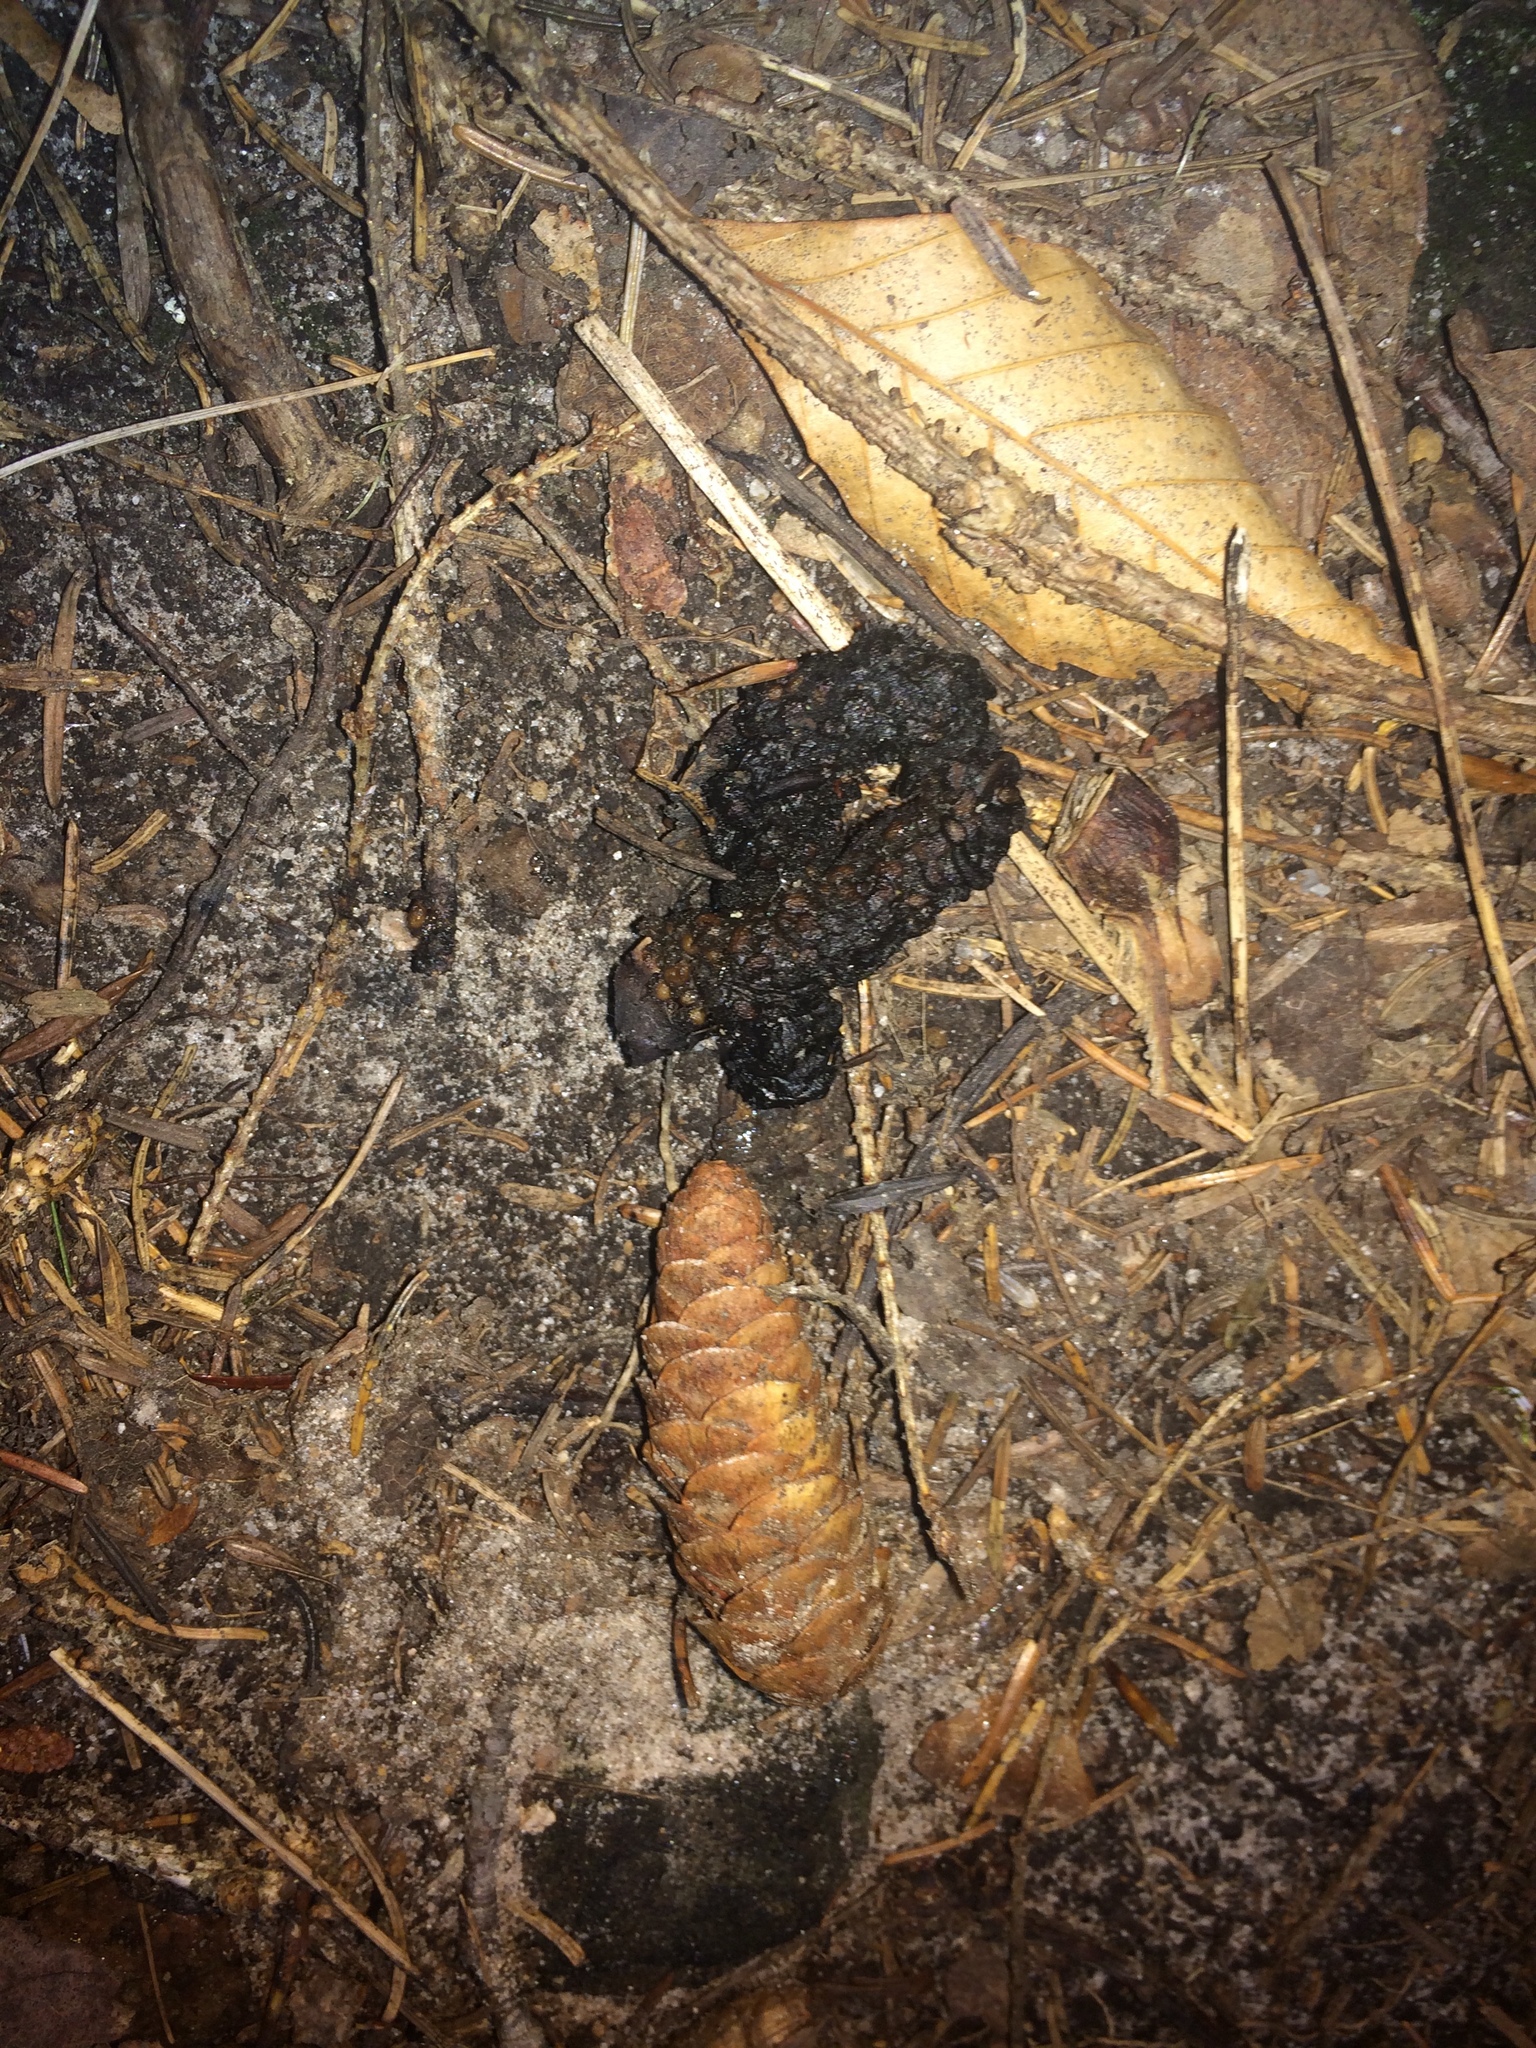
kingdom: Animalia
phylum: Chordata
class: Aves
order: Galliformes
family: Phasianidae
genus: Bonasa
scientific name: Bonasa umbellus
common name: Ruffed grouse
